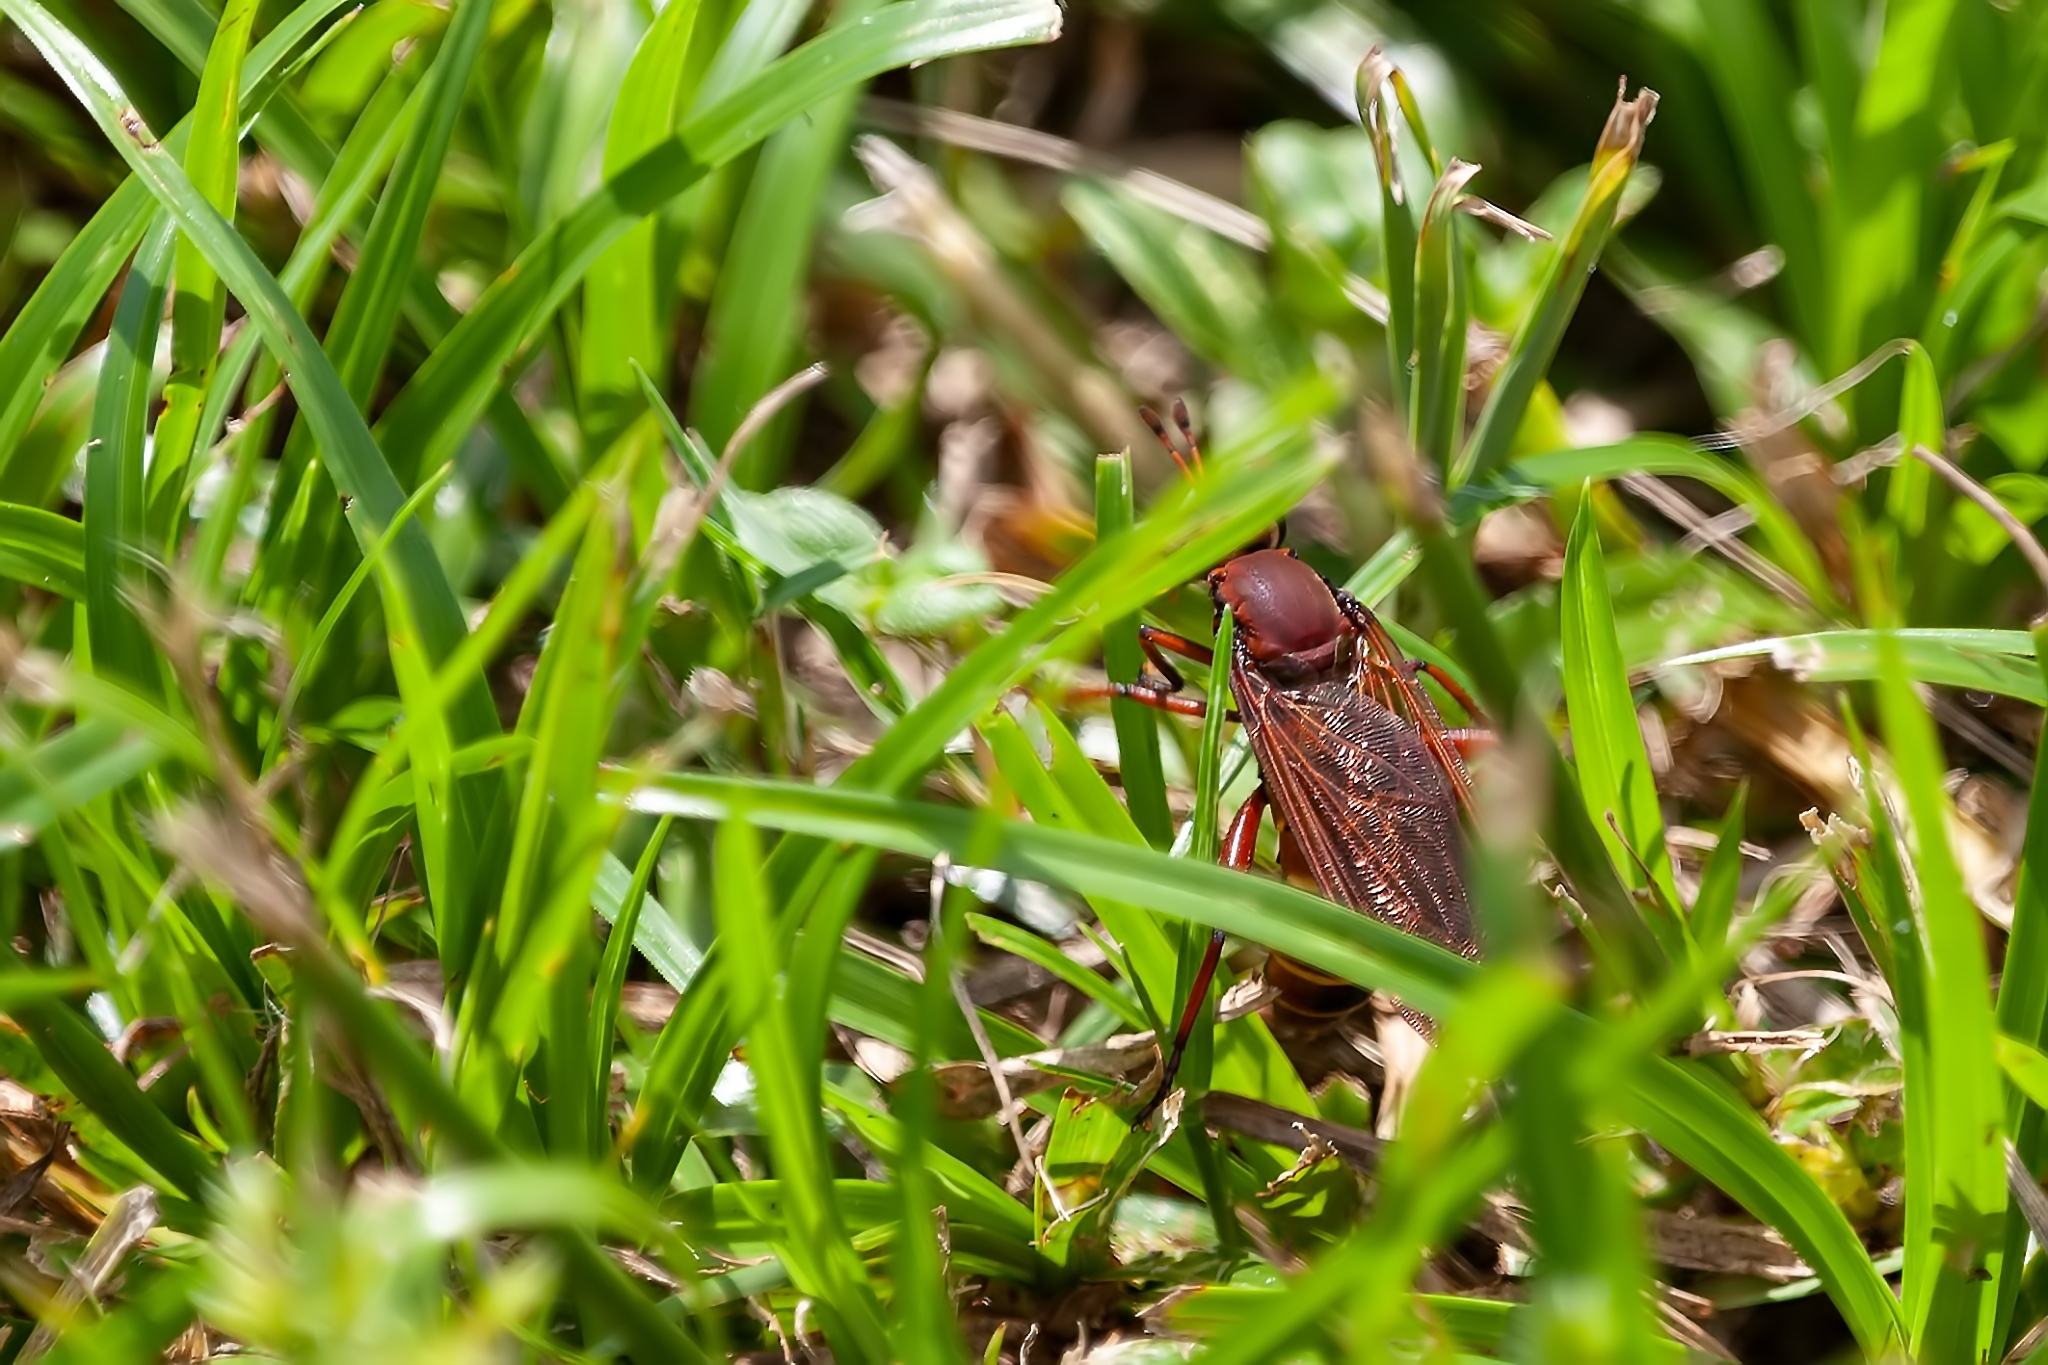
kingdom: Animalia
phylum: Arthropoda
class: Insecta
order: Diptera
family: Mydidae
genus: Mydas
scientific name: Mydas maculiventris
